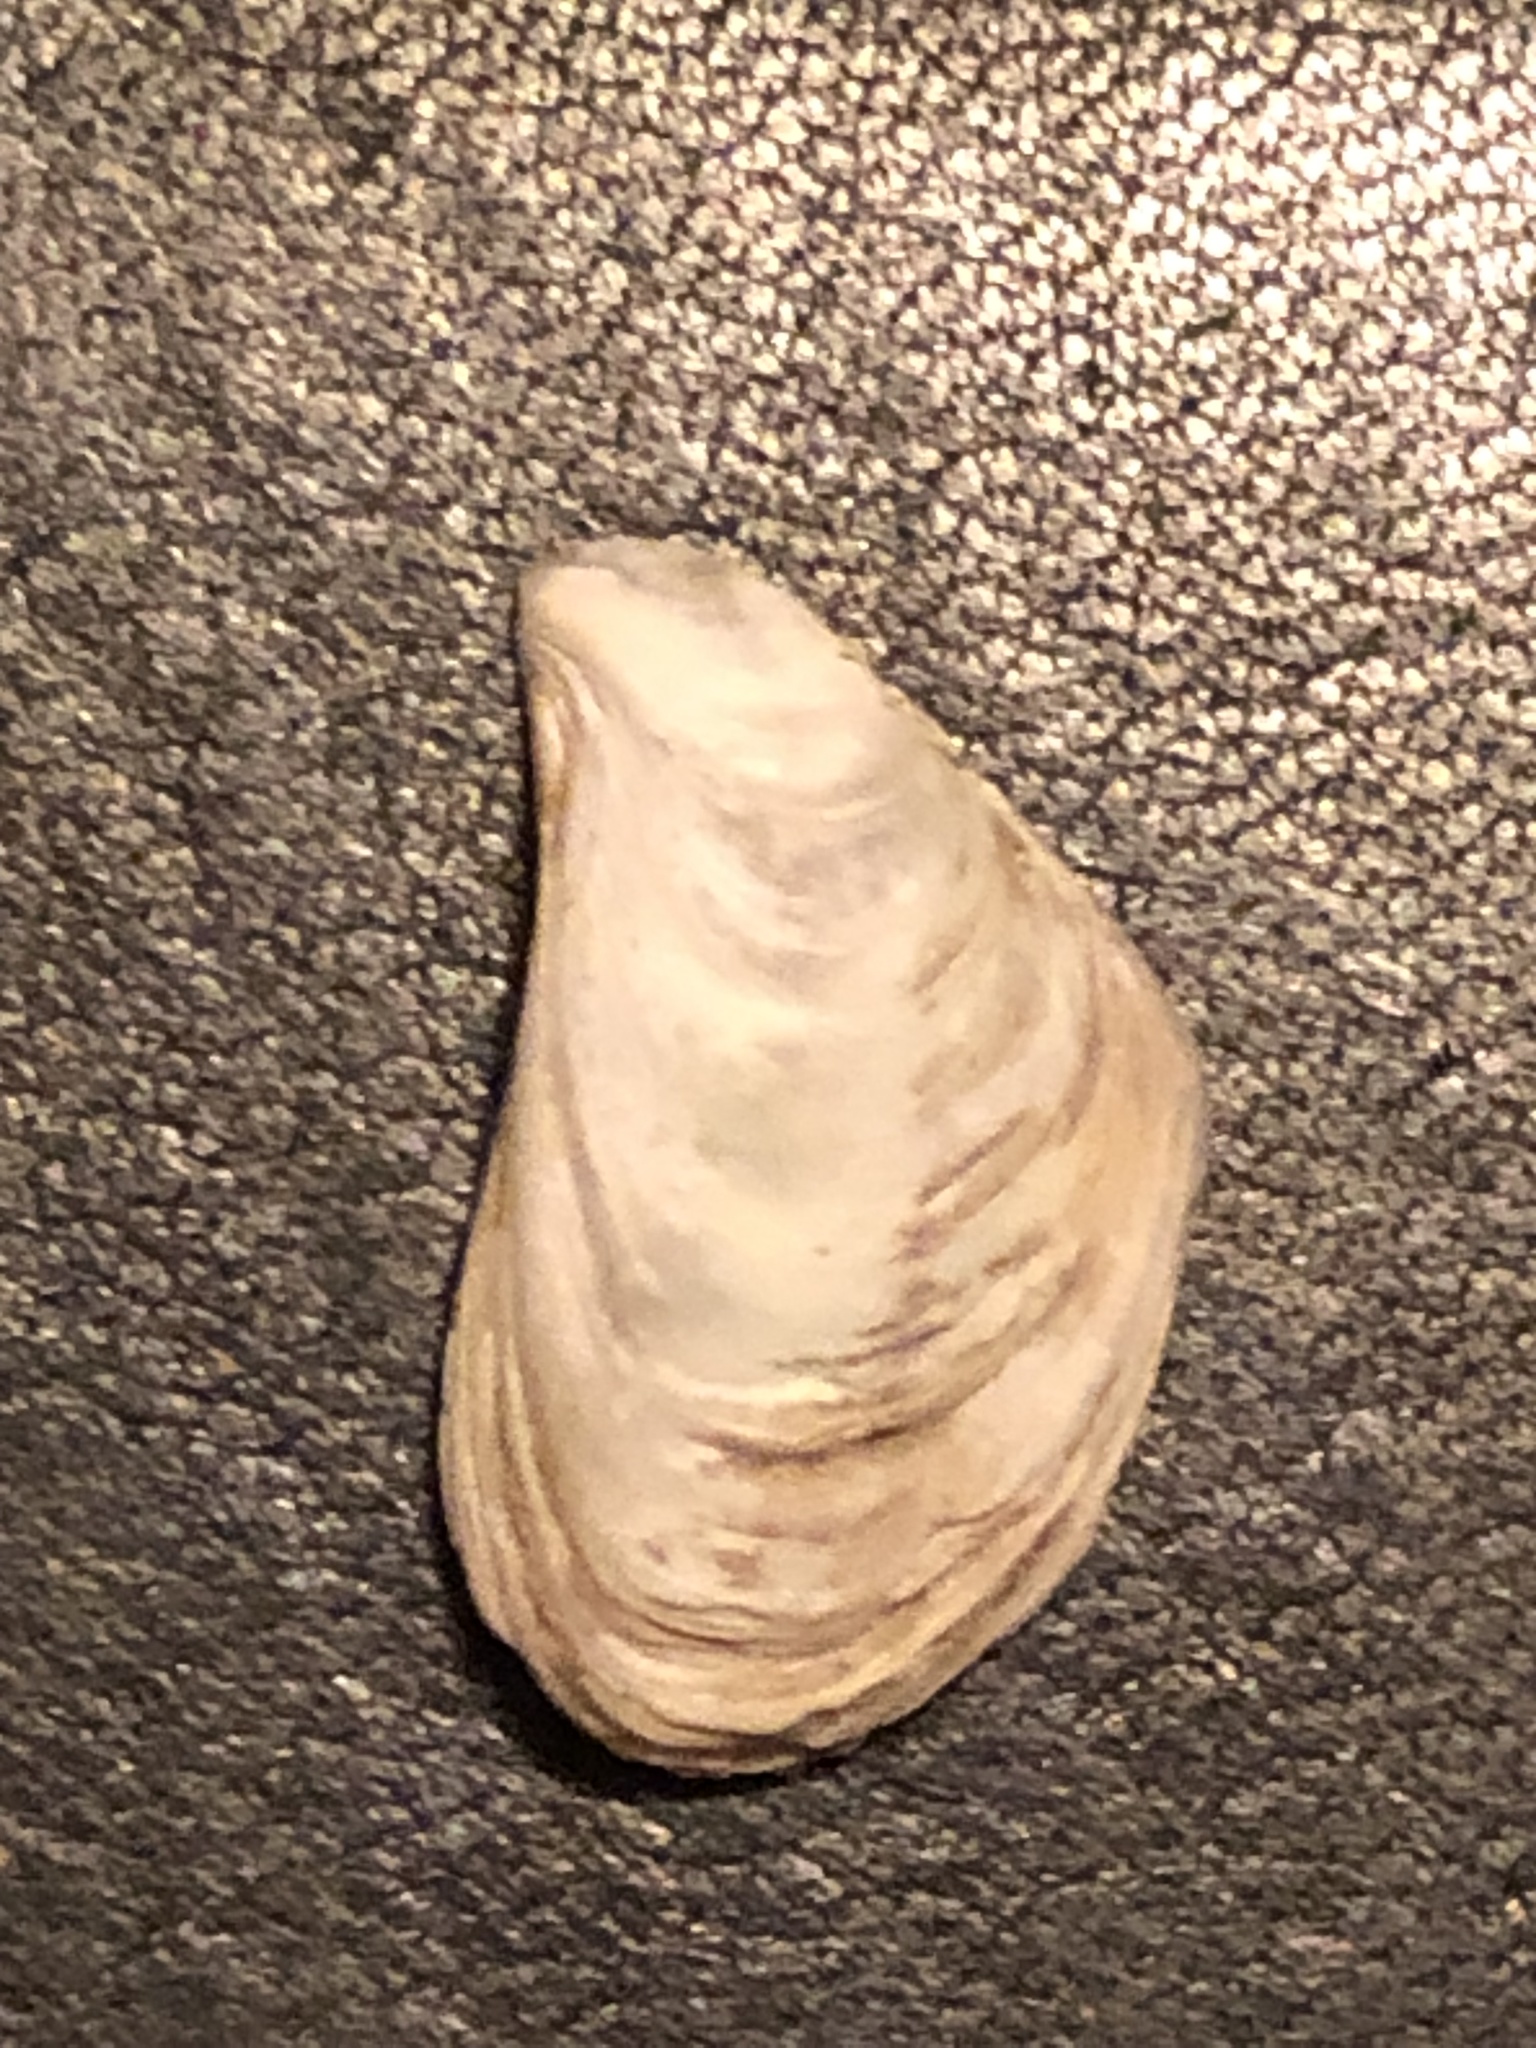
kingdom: Animalia
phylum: Mollusca
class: Bivalvia
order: Myida
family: Dreissenidae
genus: Dreissena
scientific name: Dreissena bugensis
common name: Quagga mussel
